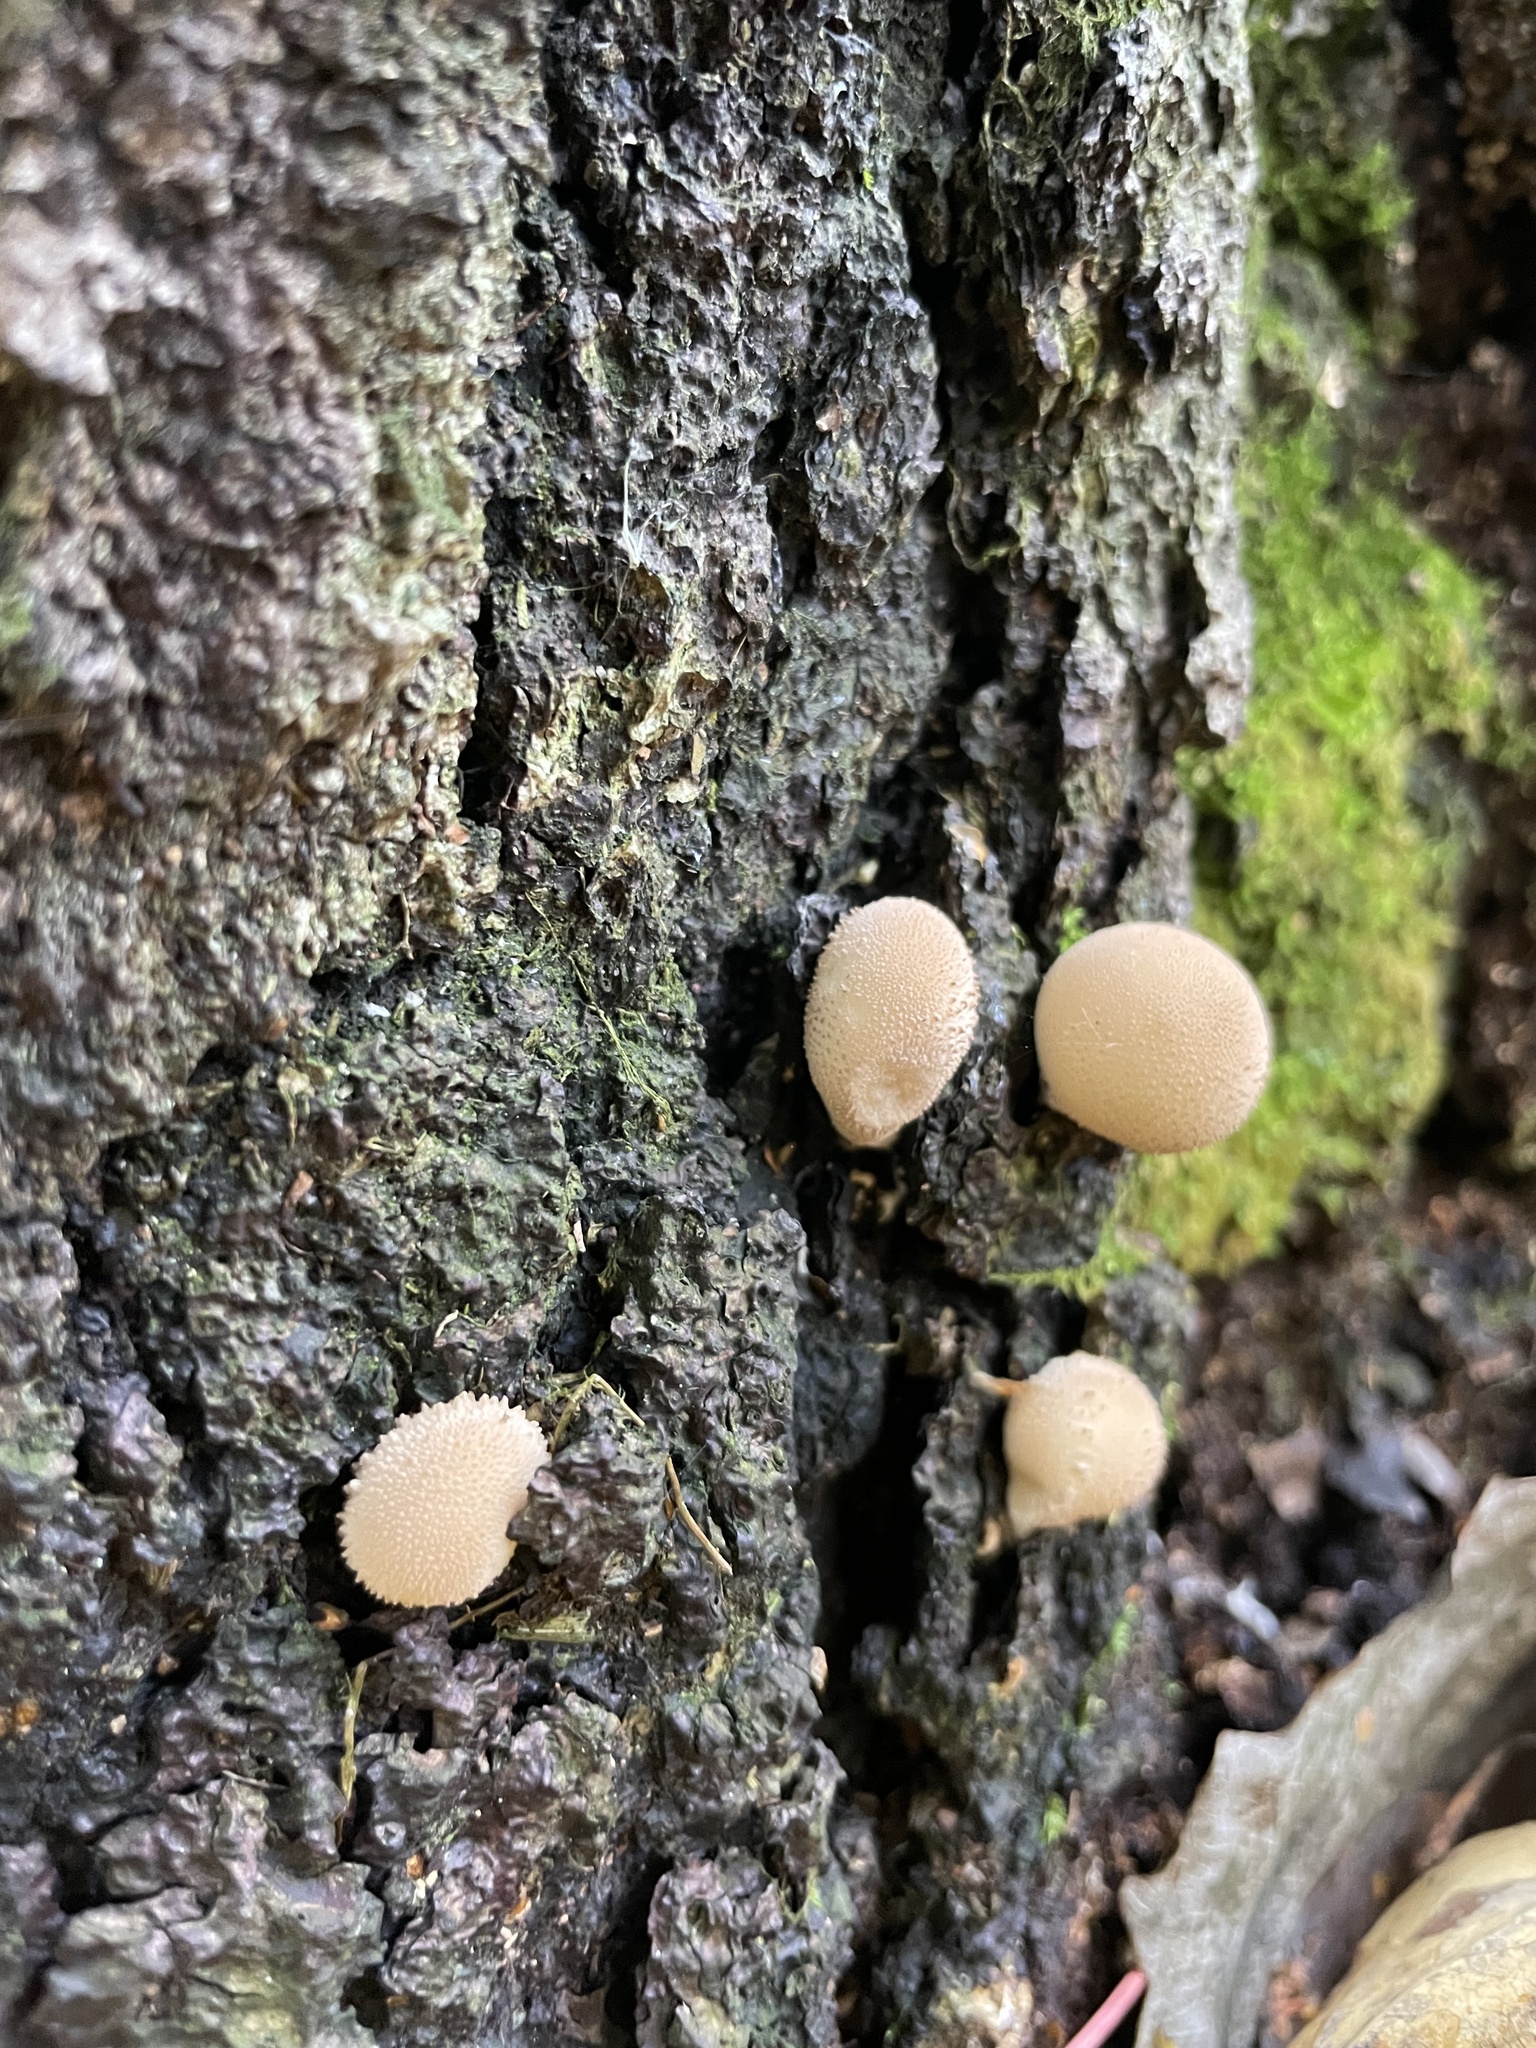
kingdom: Fungi
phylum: Basidiomycota
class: Agaricomycetes
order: Agaricales
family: Lycoperdaceae
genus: Apioperdon
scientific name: Apioperdon pyriforme
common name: Pear-shaped puffball
